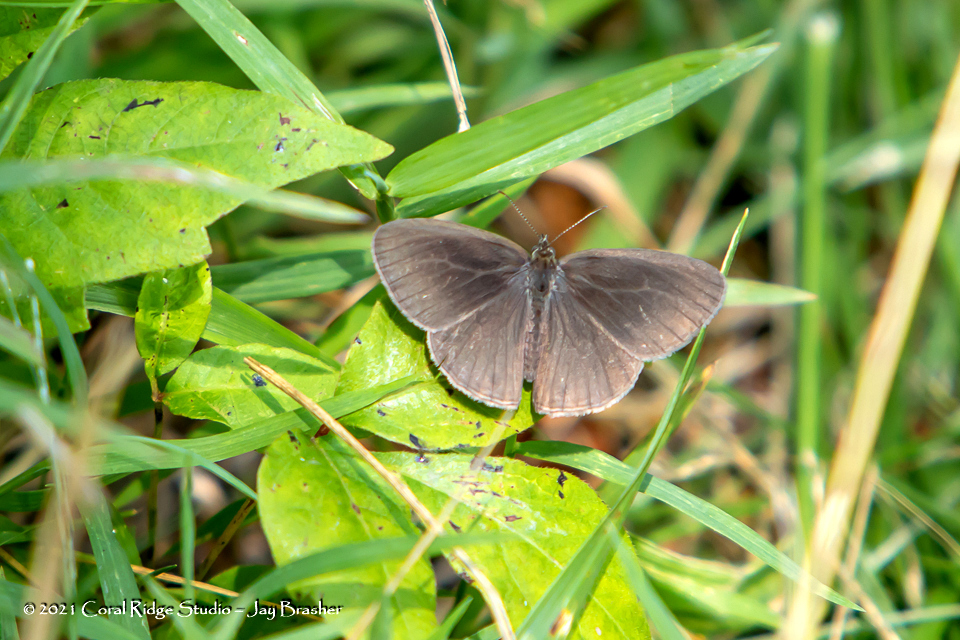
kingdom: Animalia
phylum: Arthropoda
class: Insecta
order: Lepidoptera
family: Nymphalidae
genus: Hermeuptychia
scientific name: Hermeuptychia hermes
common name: Hermes satyr
